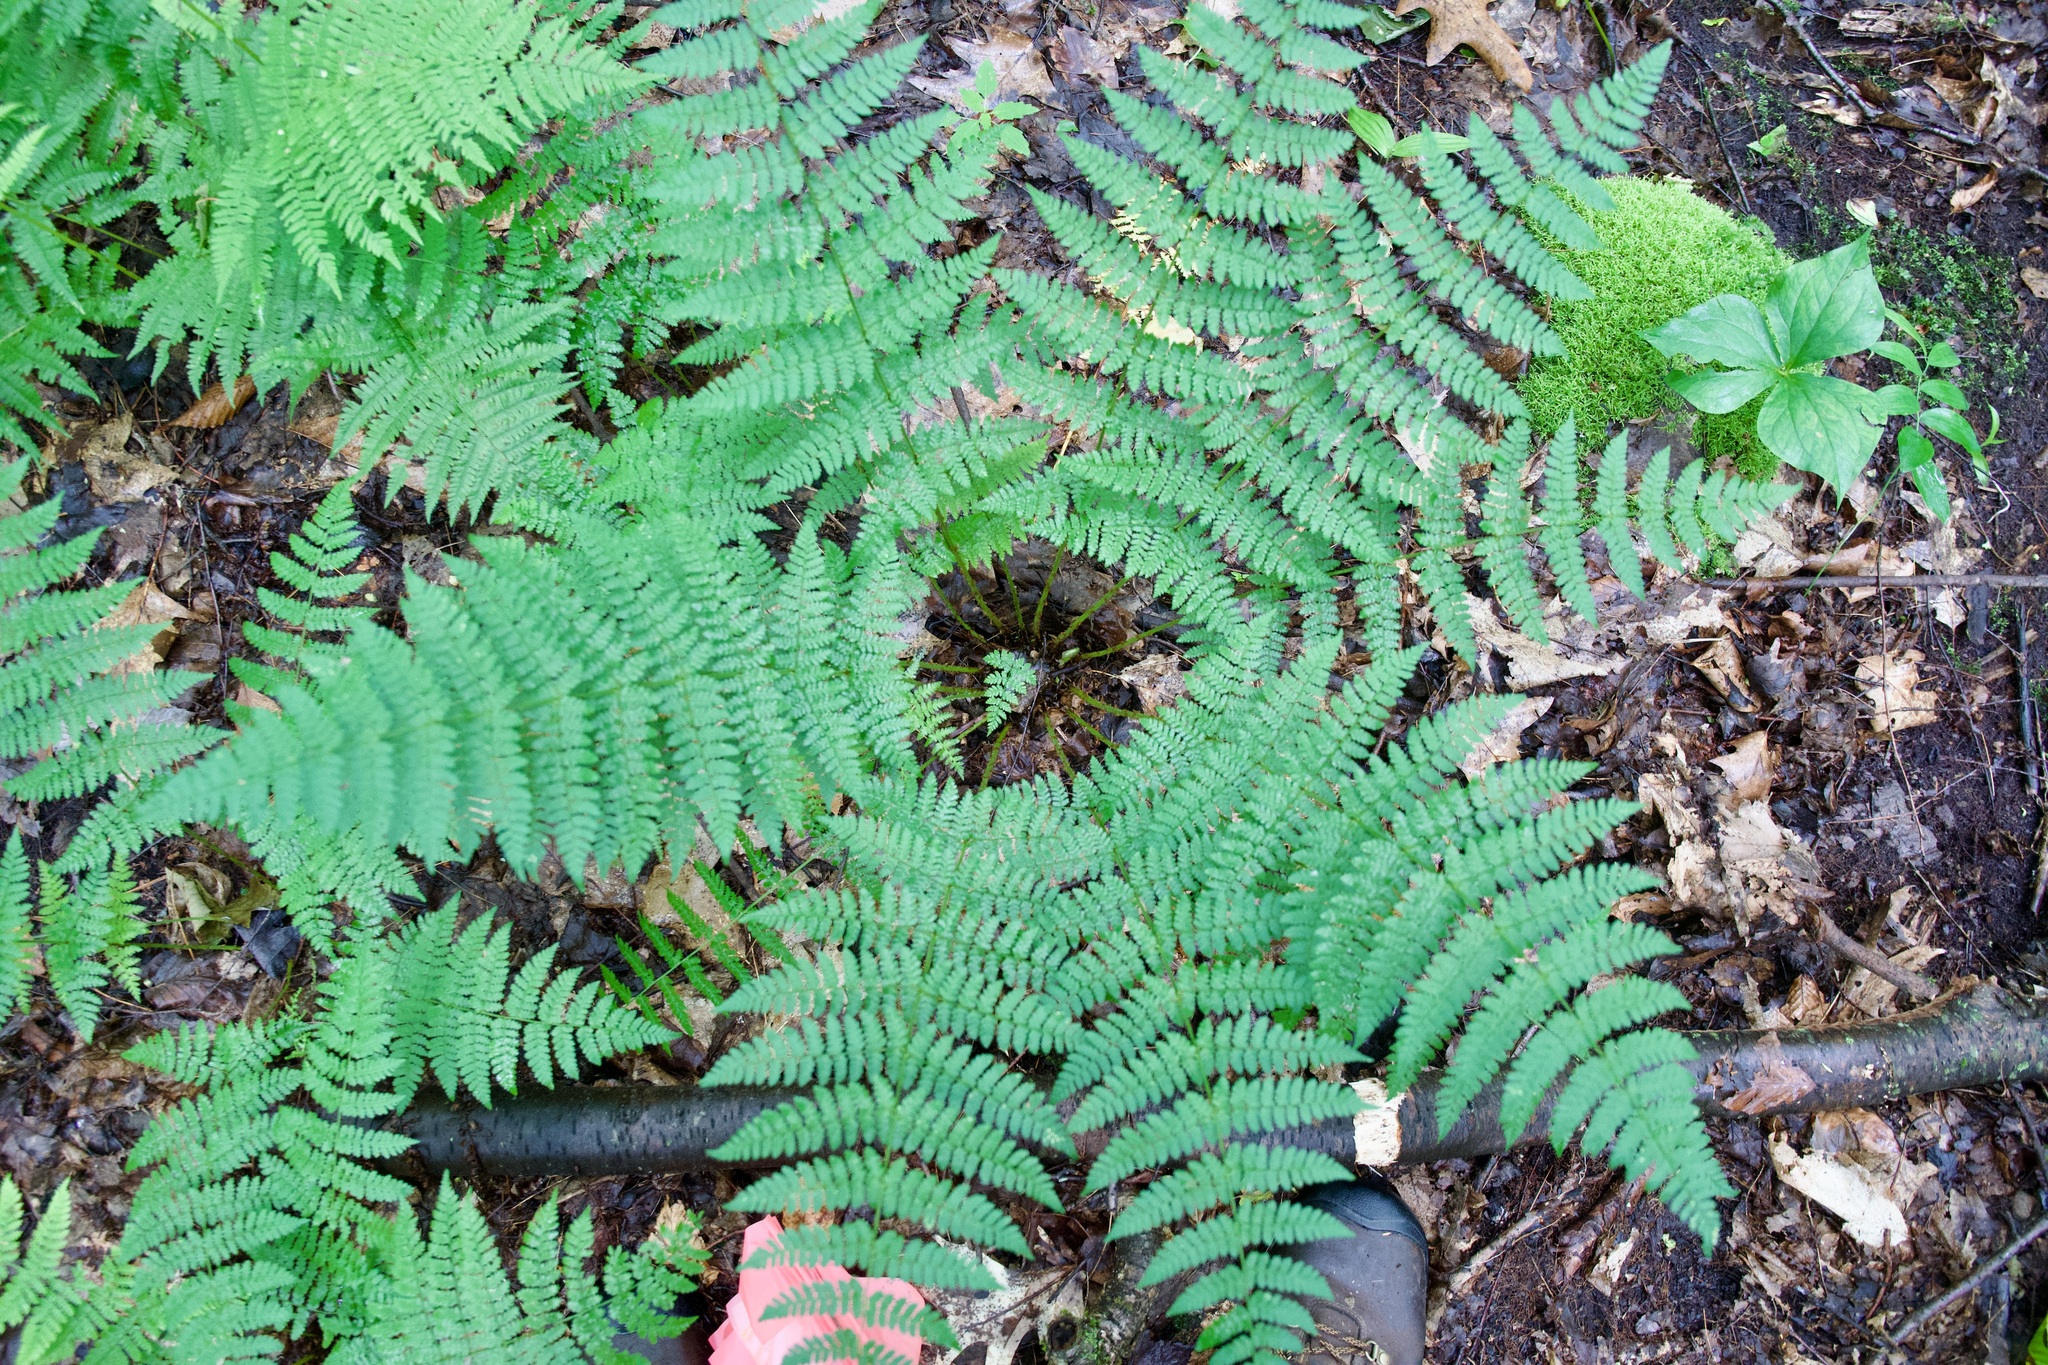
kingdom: Plantae
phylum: Tracheophyta
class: Polypodiopsida
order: Polypodiales
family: Dryopteridaceae
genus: Dryopteris
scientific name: Dryopteris intermedia
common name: Evergreen wood fern
